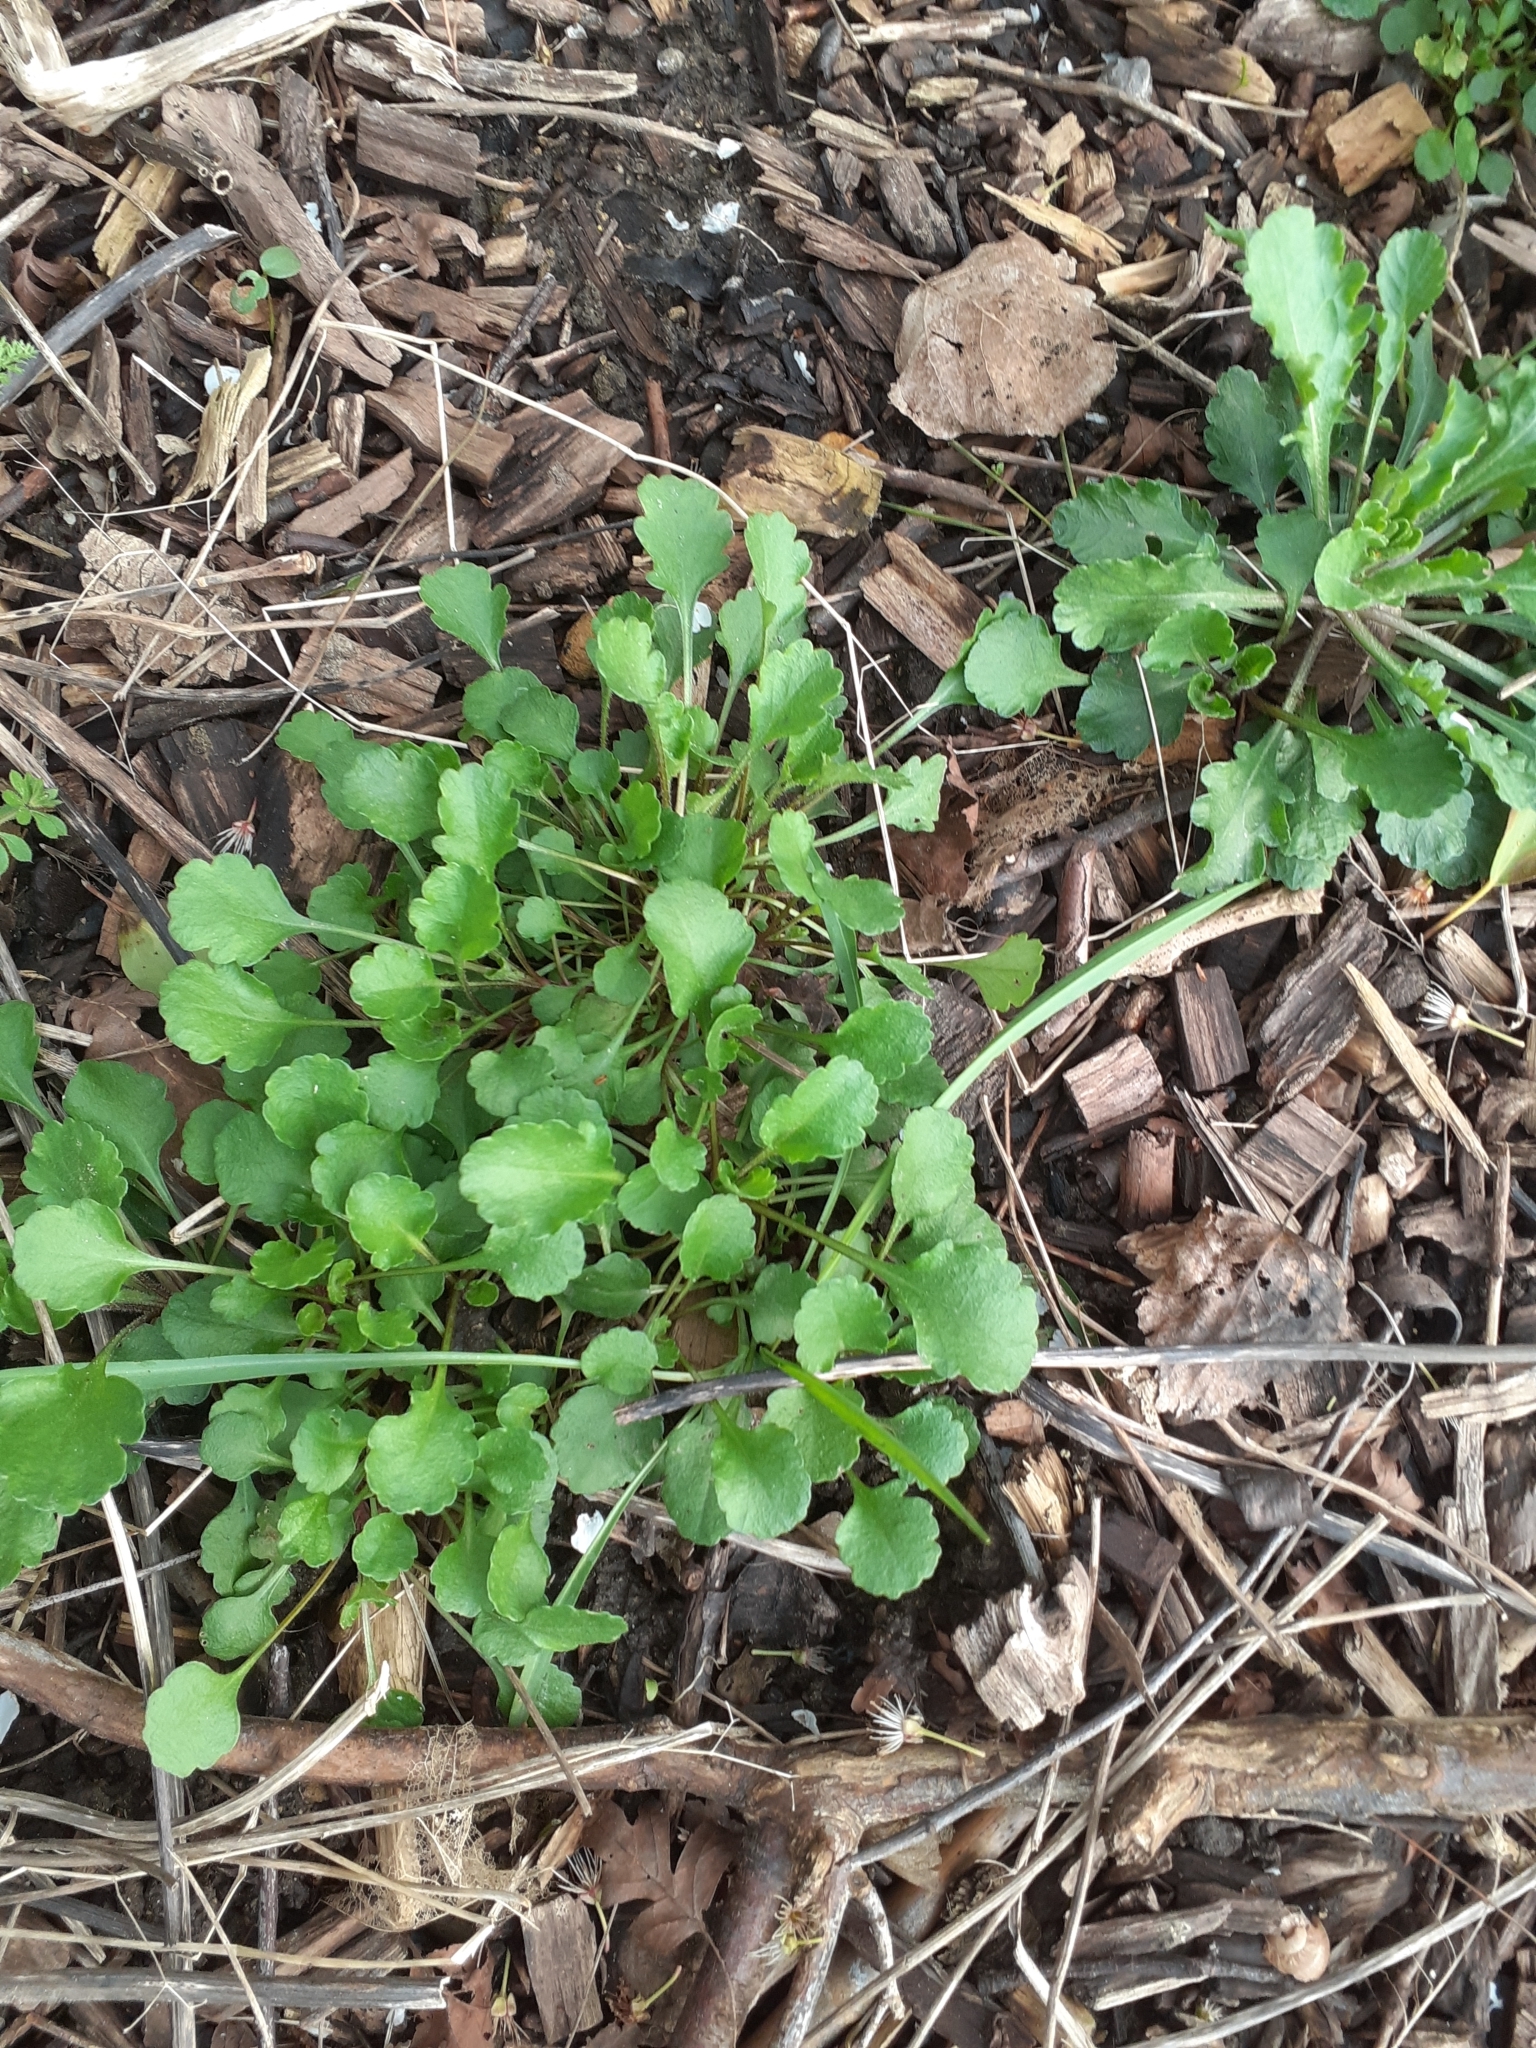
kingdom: Plantae
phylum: Tracheophyta
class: Magnoliopsida
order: Asterales
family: Asteraceae
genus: Leucanthemum
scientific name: Leucanthemum vulgare
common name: Oxeye daisy
